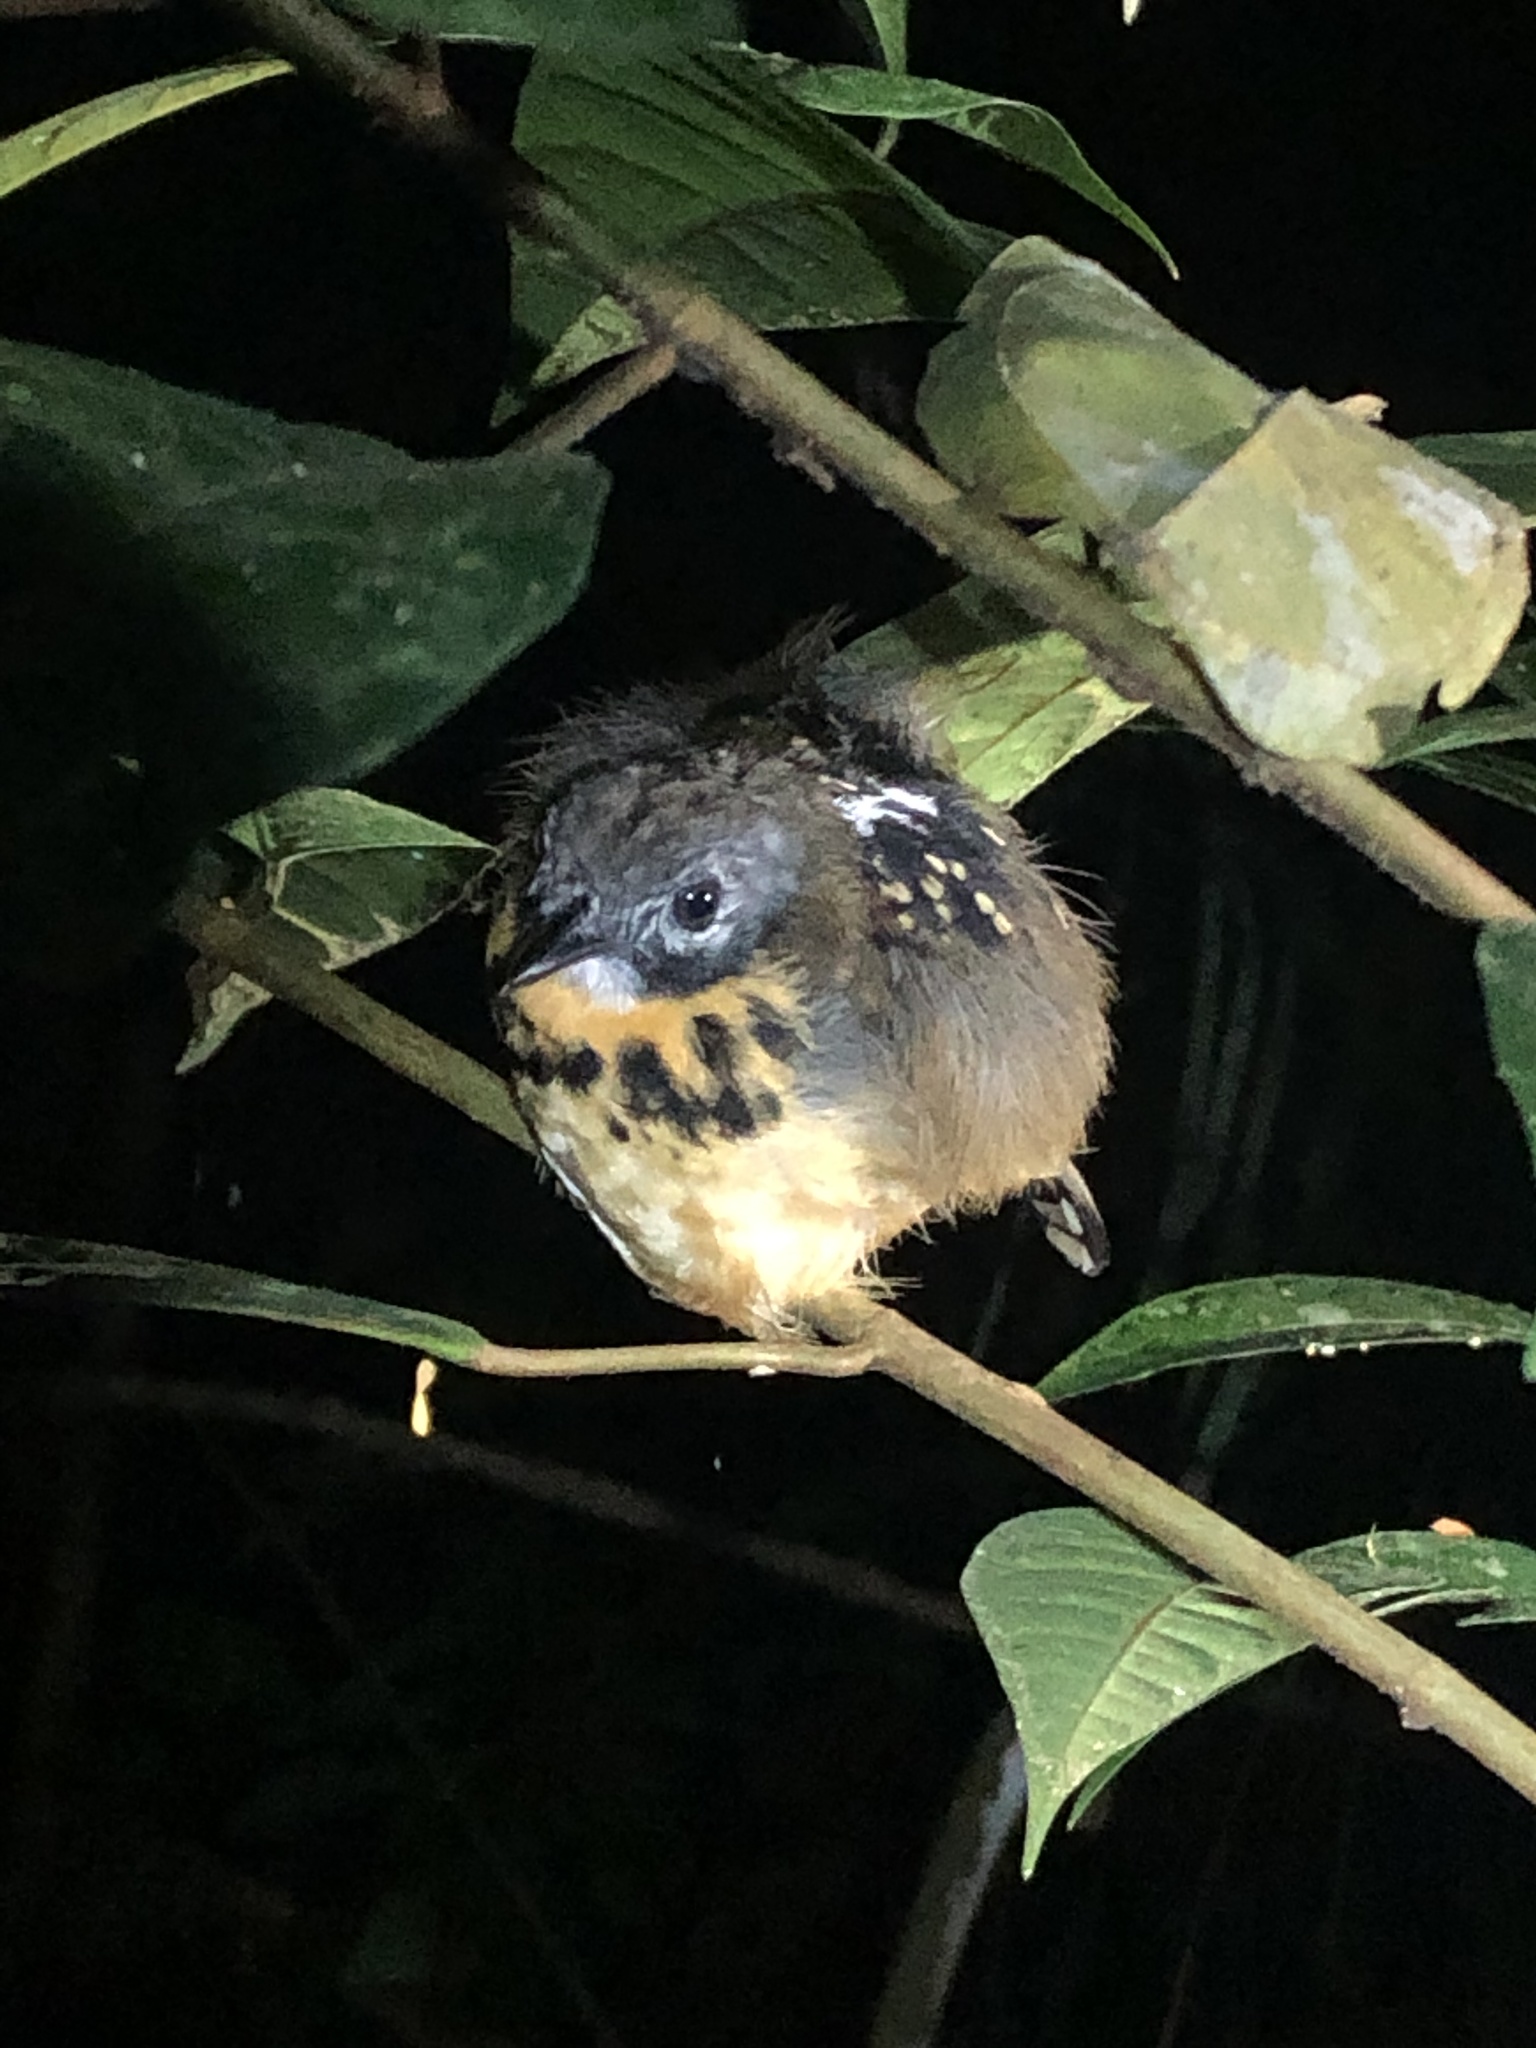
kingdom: Animalia
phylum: Chordata
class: Aves
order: Passeriformes
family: Thamnophilidae
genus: Hylophylax
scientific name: Hylophylax naevius
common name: Spot-backed antbird
